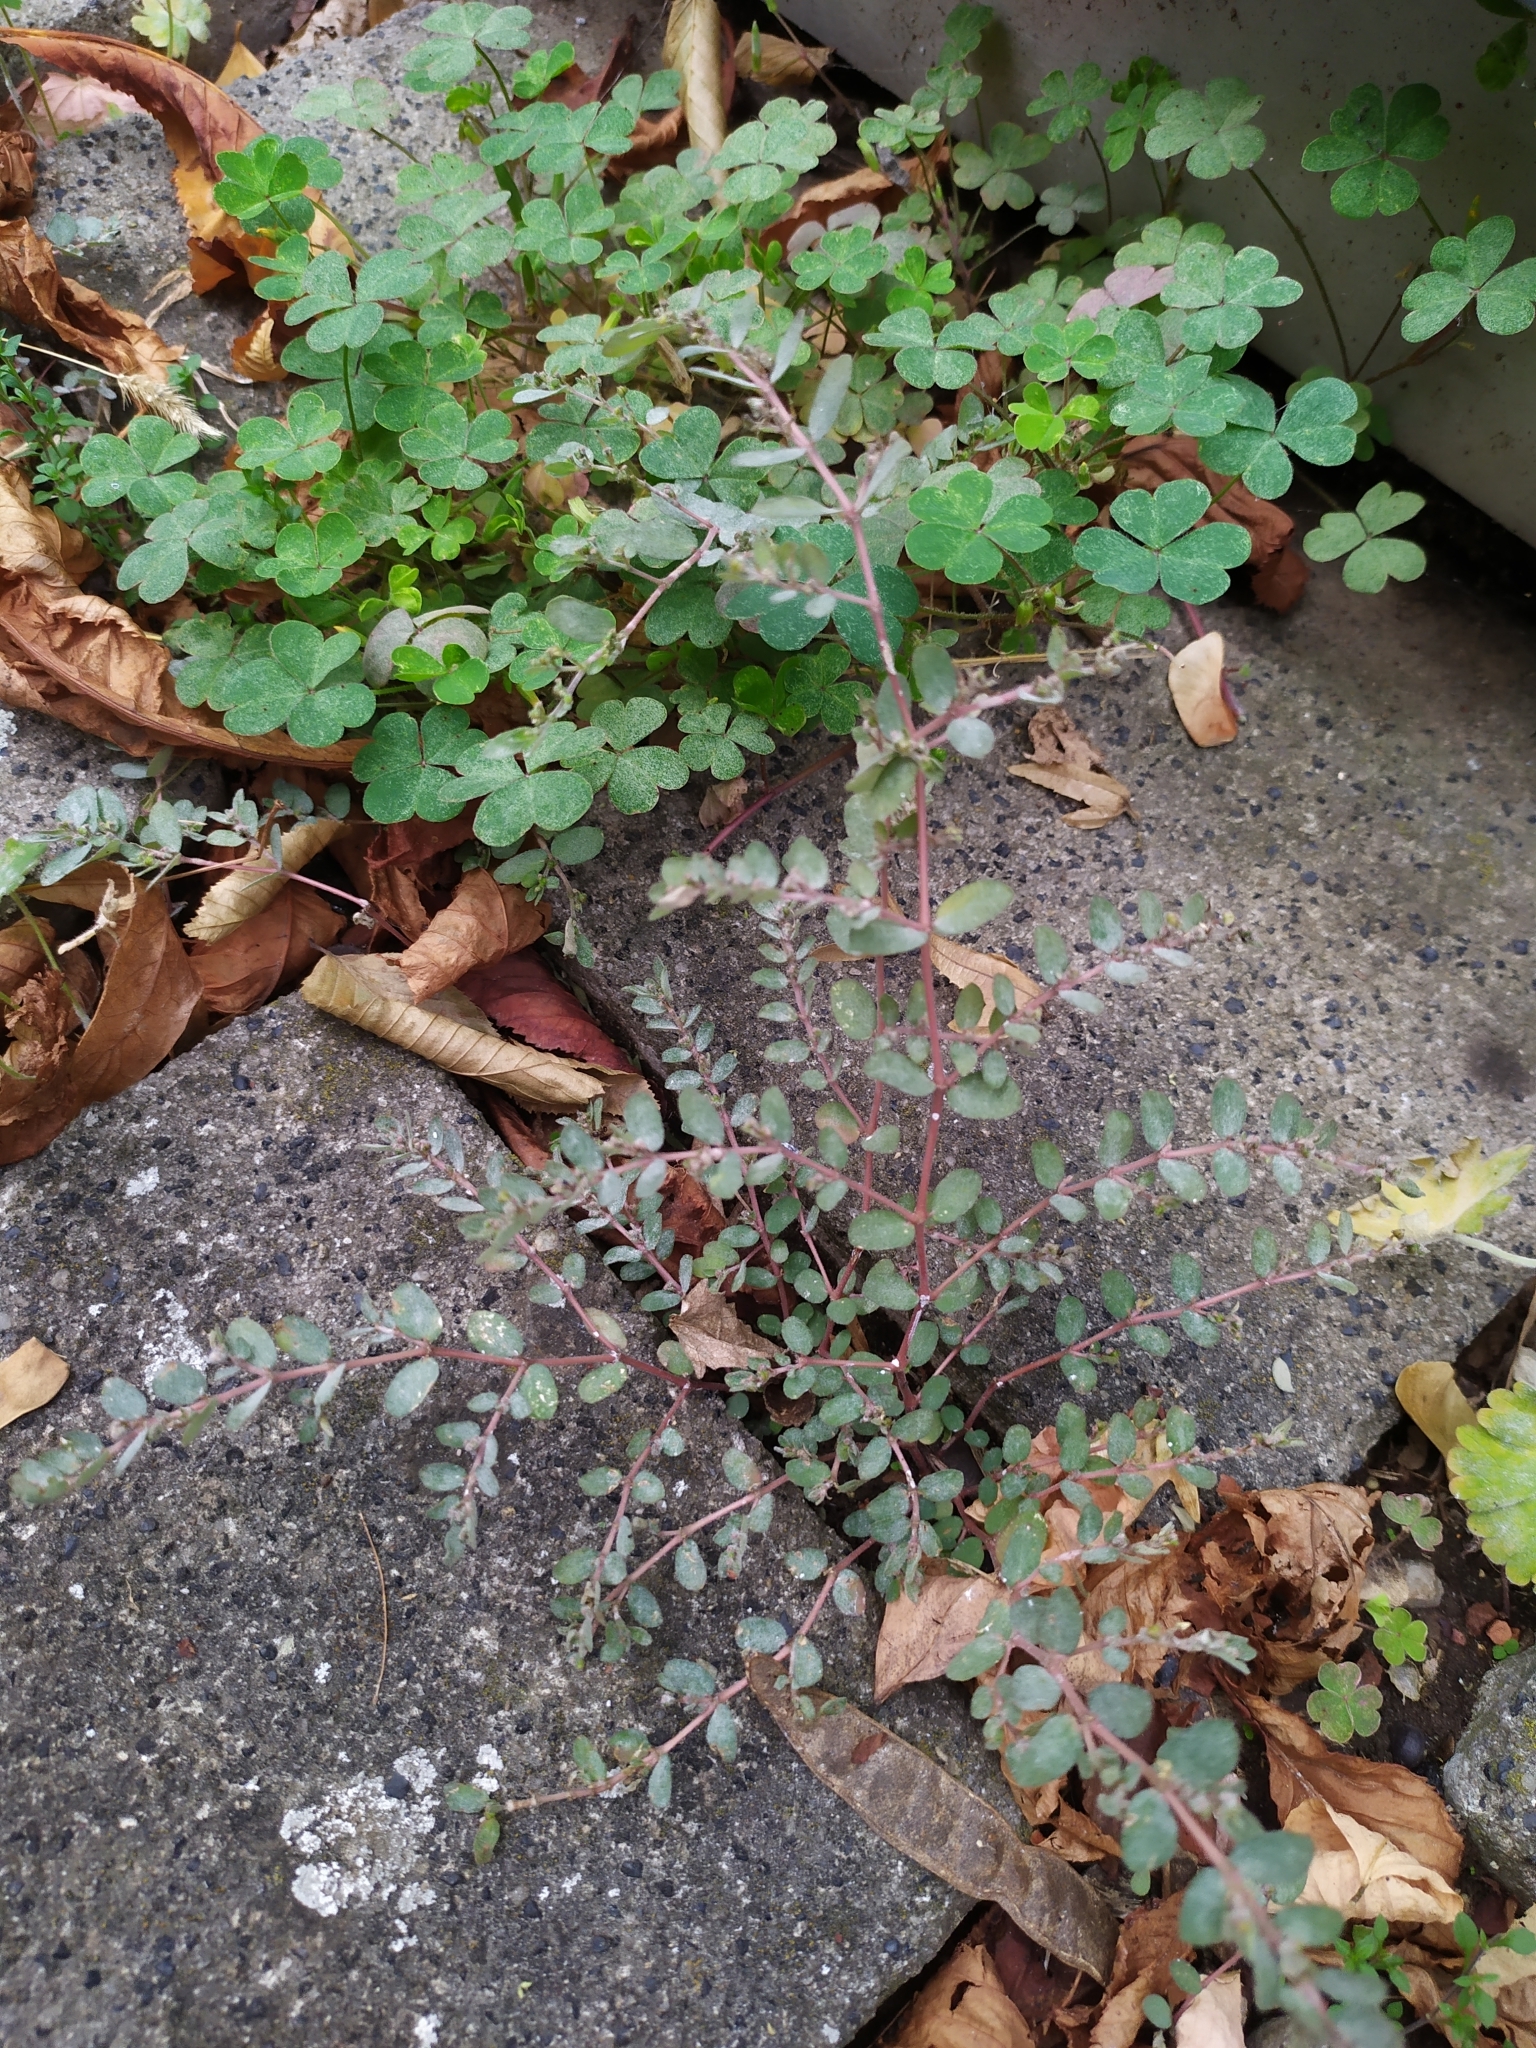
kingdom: Plantae
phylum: Tracheophyta
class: Magnoliopsida
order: Malpighiales
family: Euphorbiaceae
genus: Euphorbia
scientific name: Euphorbia prostrata
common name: Prostrate sandmat
